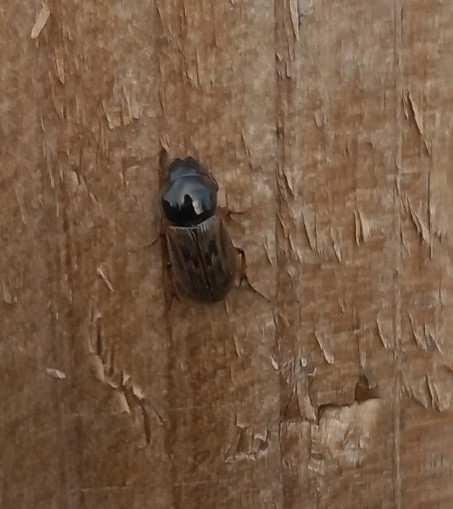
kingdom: Animalia
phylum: Arthropoda
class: Insecta
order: Coleoptera
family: Scarabaeidae
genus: Nimbus
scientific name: Nimbus contaminatus
